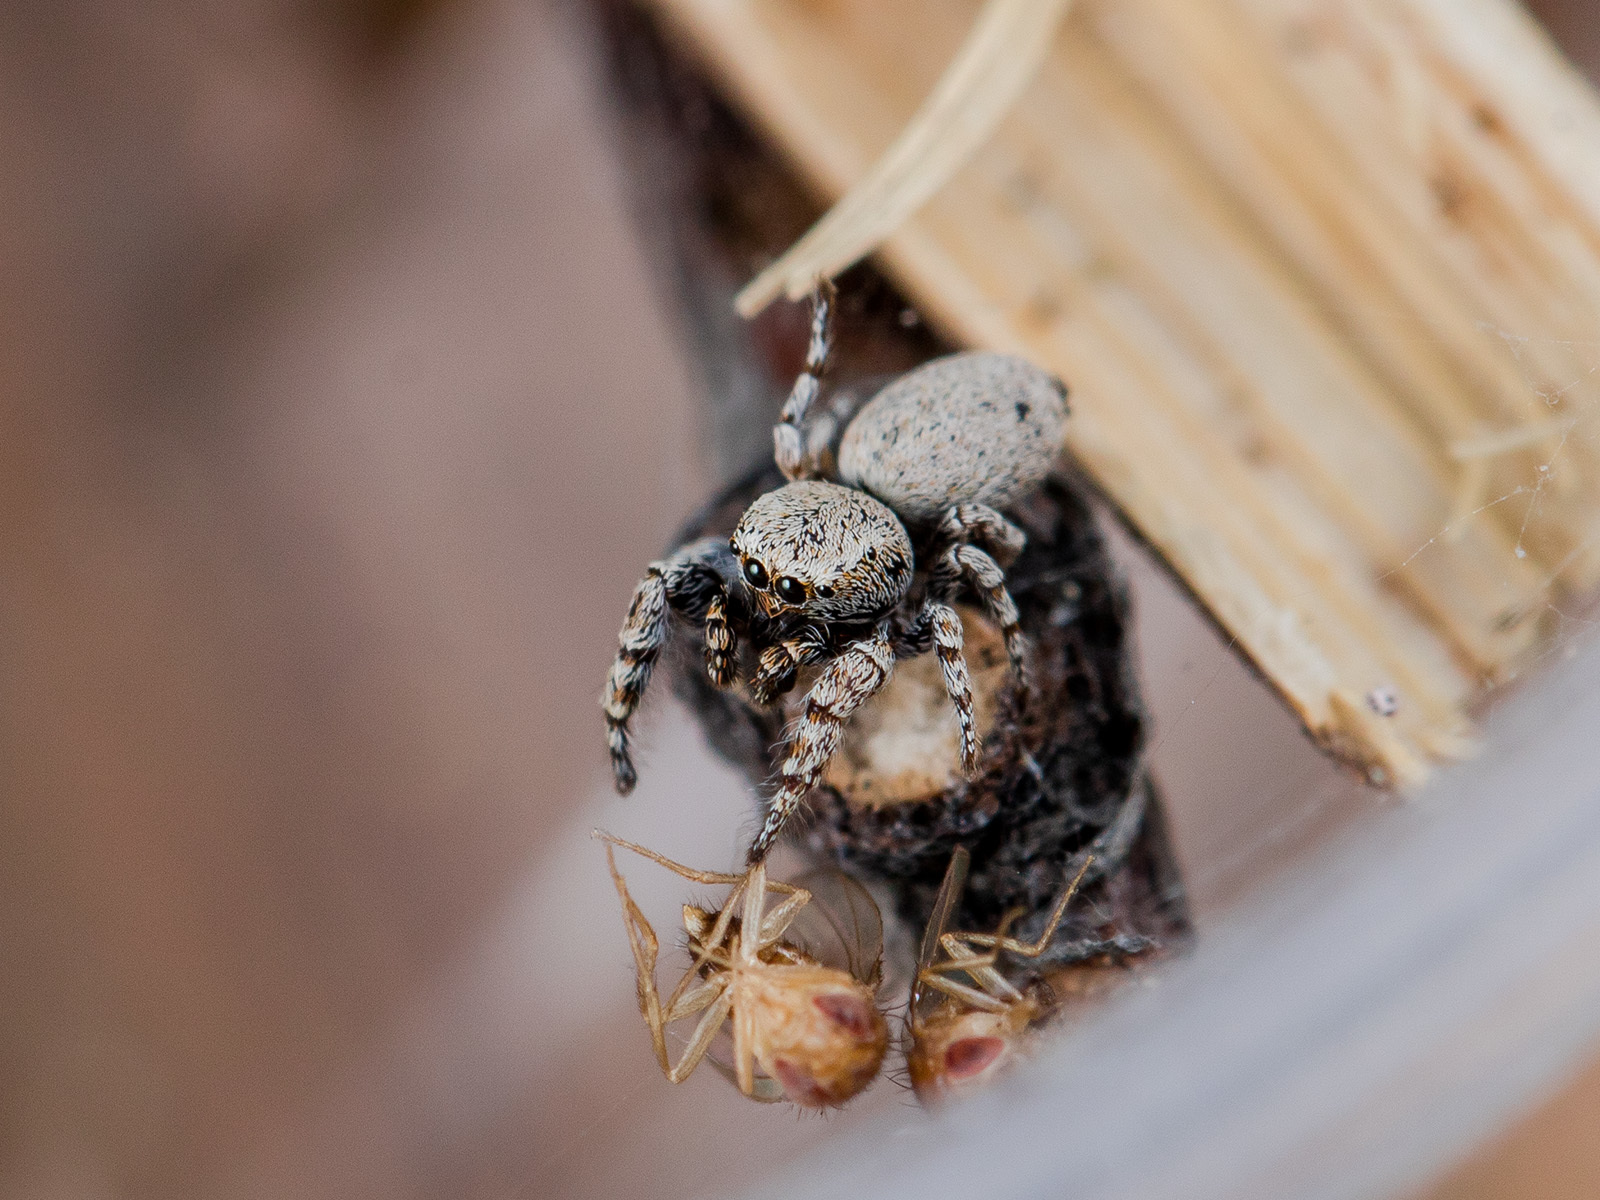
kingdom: Animalia
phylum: Arthropoda
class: Arachnida
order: Araneae
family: Salticidae
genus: Pseudomogrus
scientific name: Pseudomogrus bactrianus
